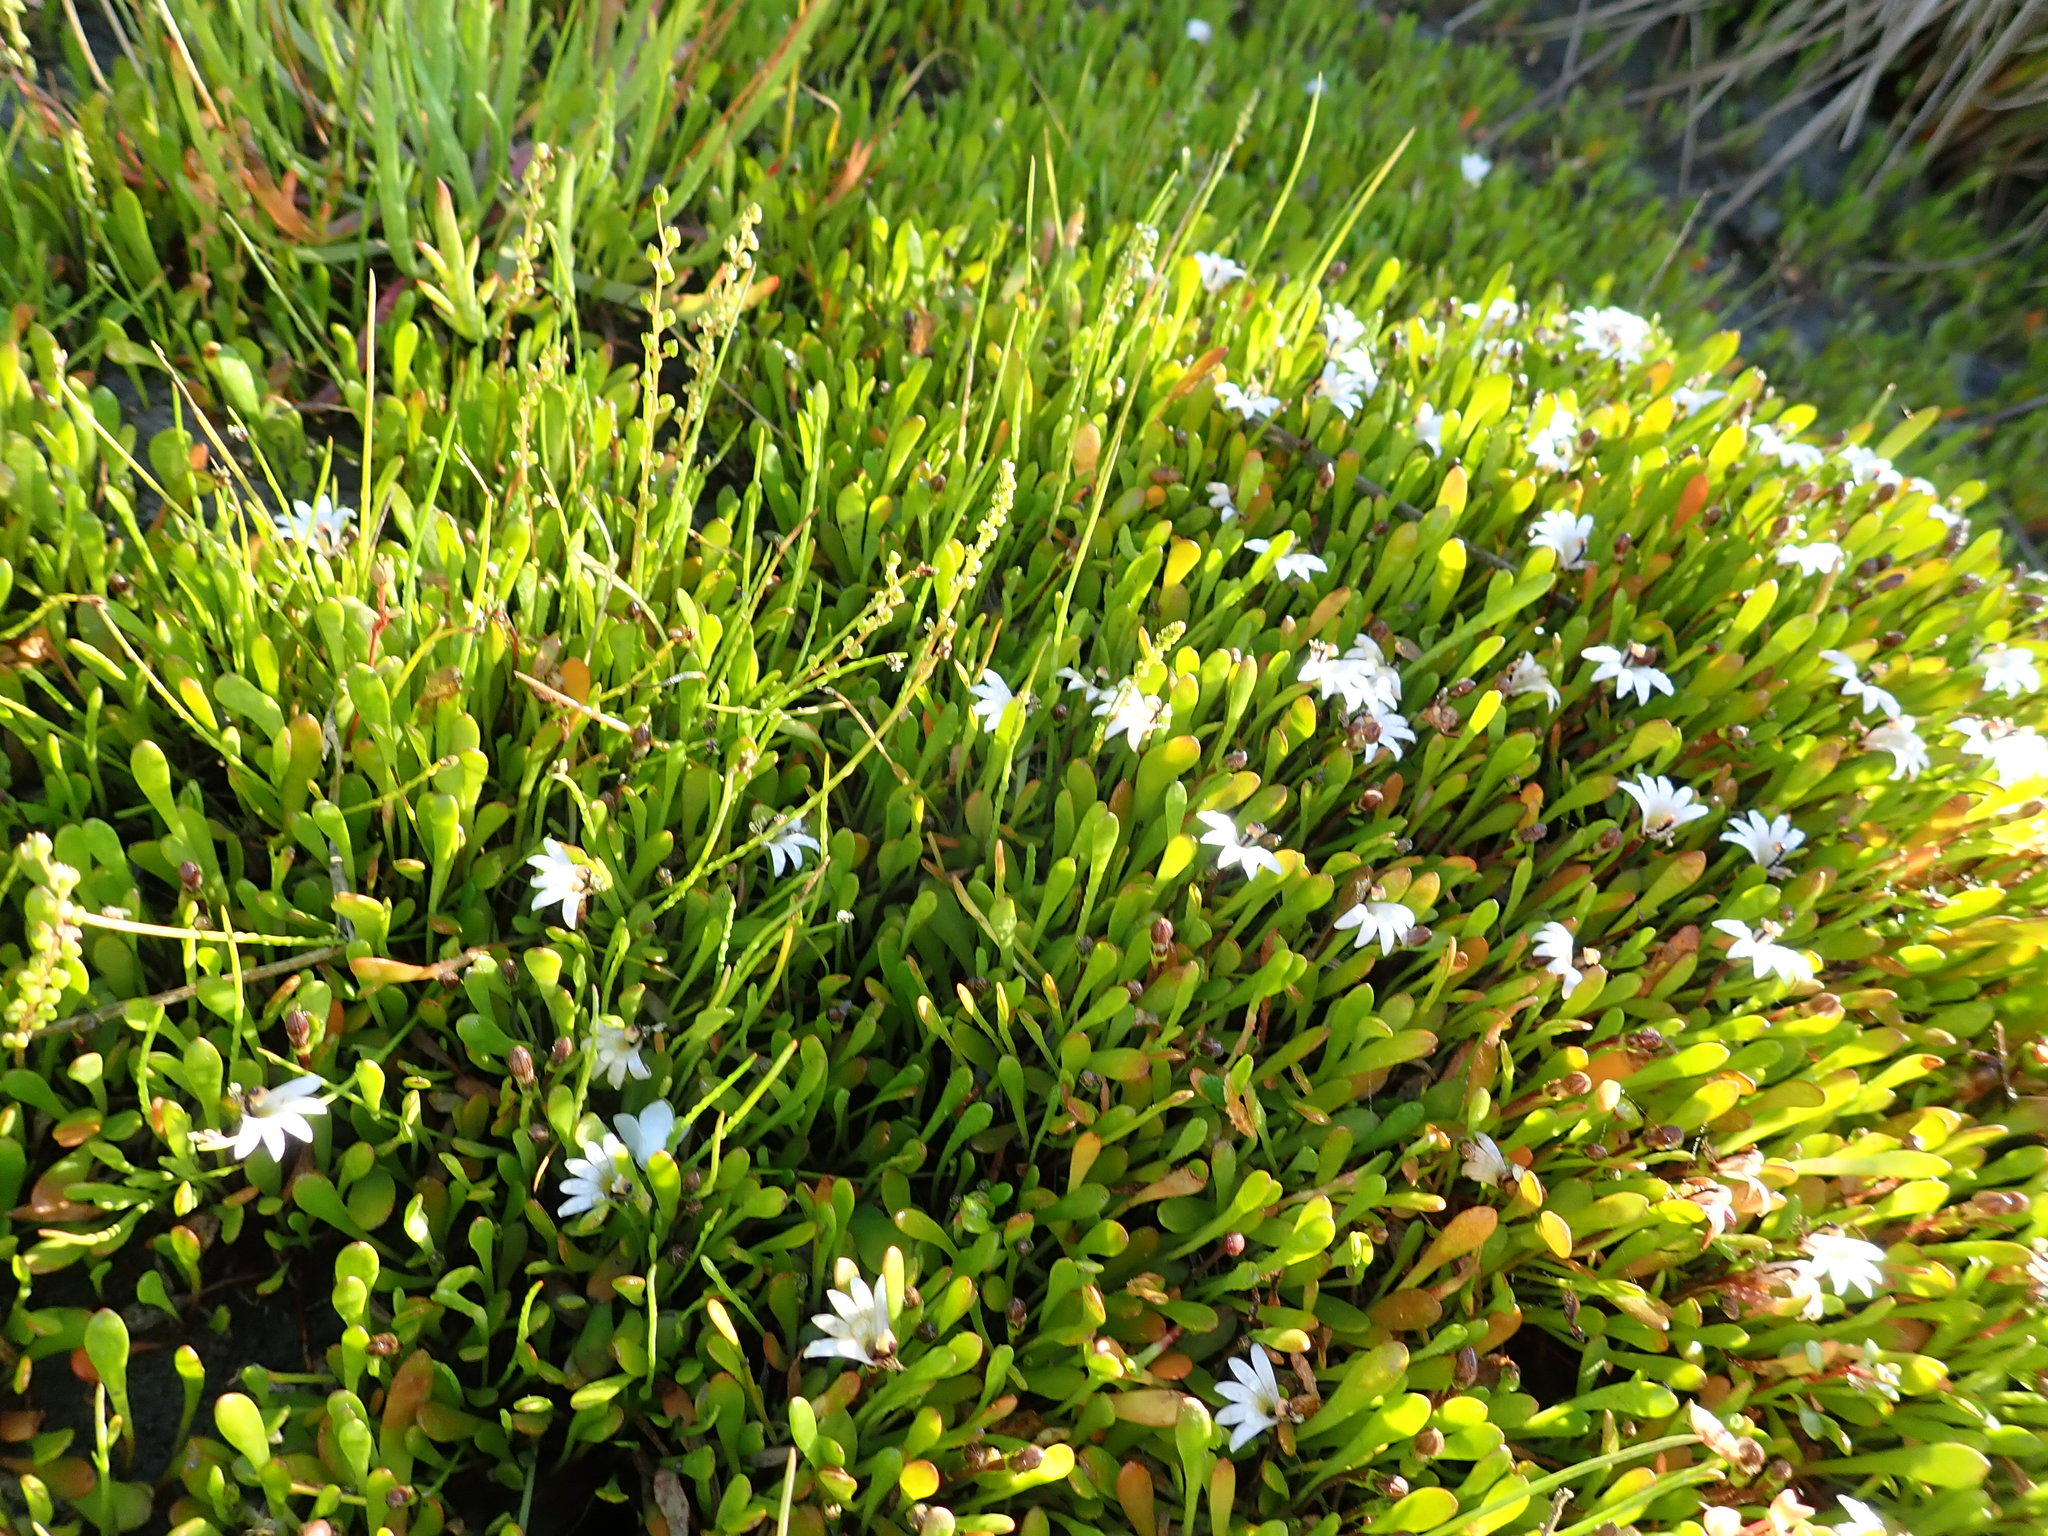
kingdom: Plantae
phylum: Tracheophyta
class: Magnoliopsida
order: Asterales
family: Goodeniaceae
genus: Goodenia
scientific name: Goodenia radicans
